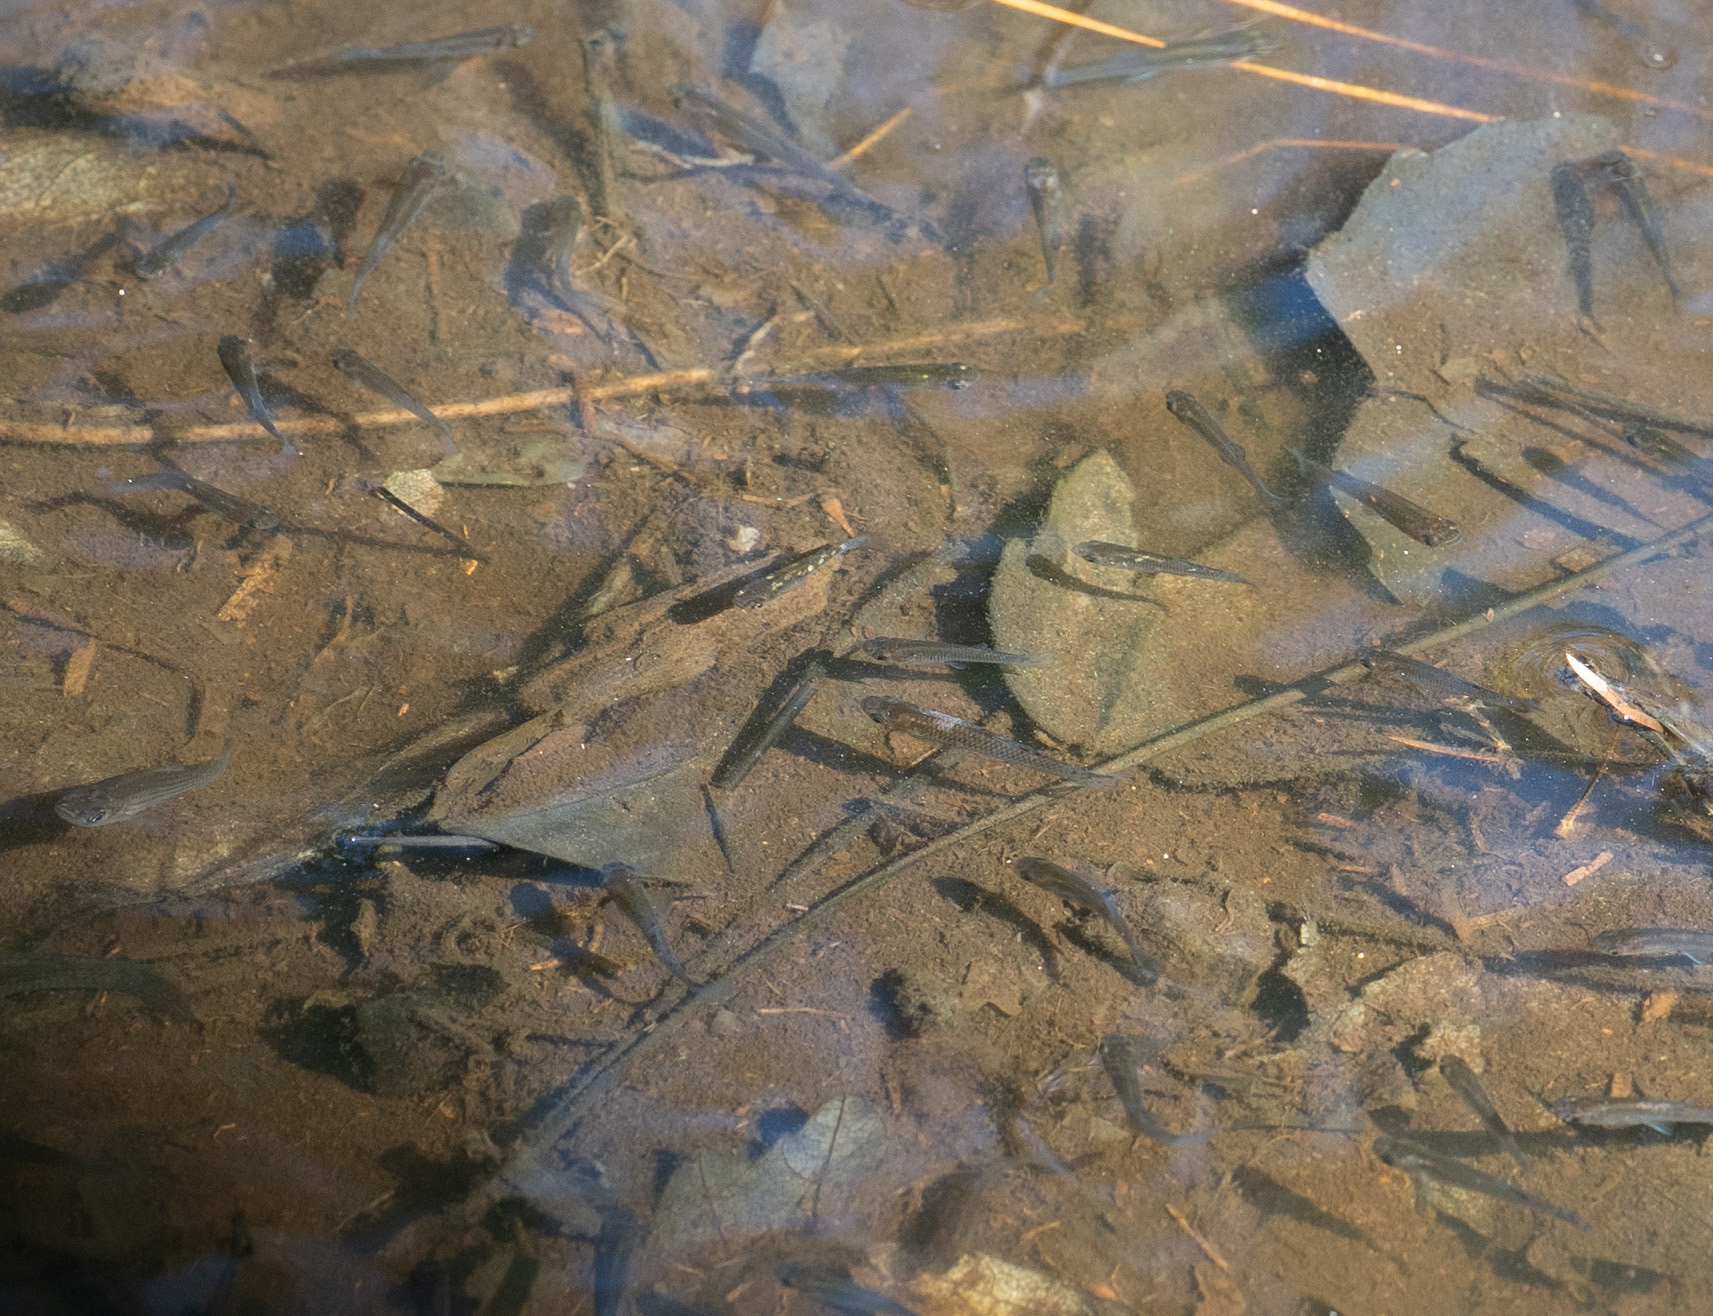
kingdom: Animalia
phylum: Chordata
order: Cyprinodontiformes
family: Poeciliidae
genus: Gambusia
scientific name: Gambusia holbrooki
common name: Eastern mosquitofish
